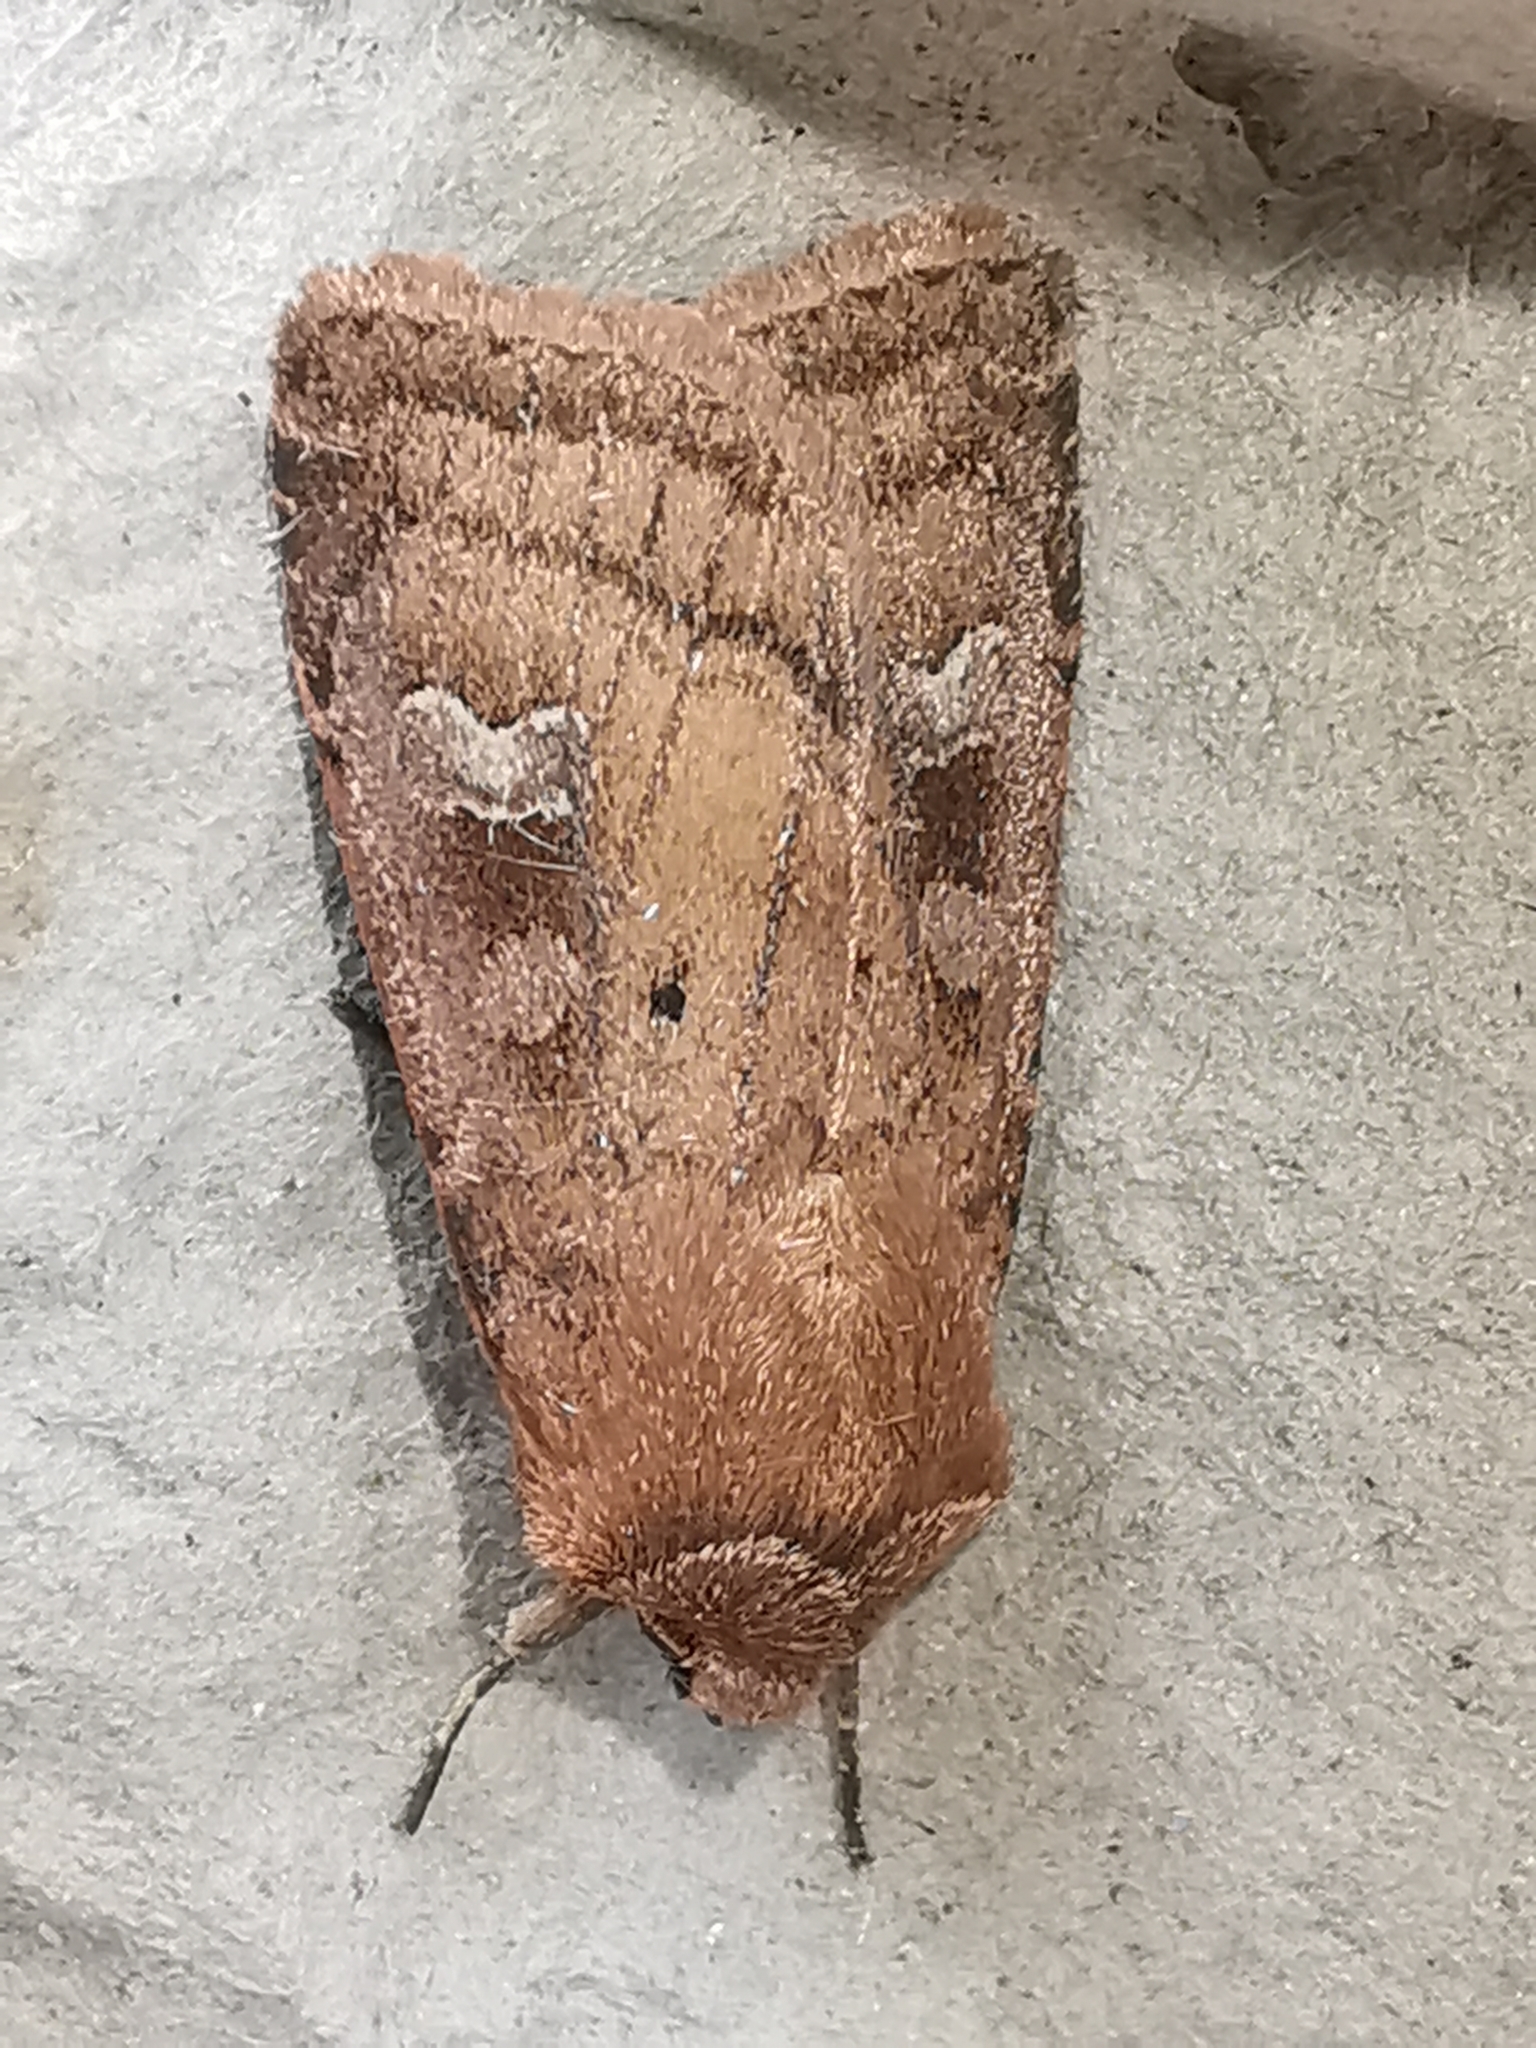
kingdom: Animalia
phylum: Arthropoda
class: Insecta
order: Lepidoptera
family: Noctuidae
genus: Diarsia
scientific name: Diarsia rubi
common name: Small square-spot
